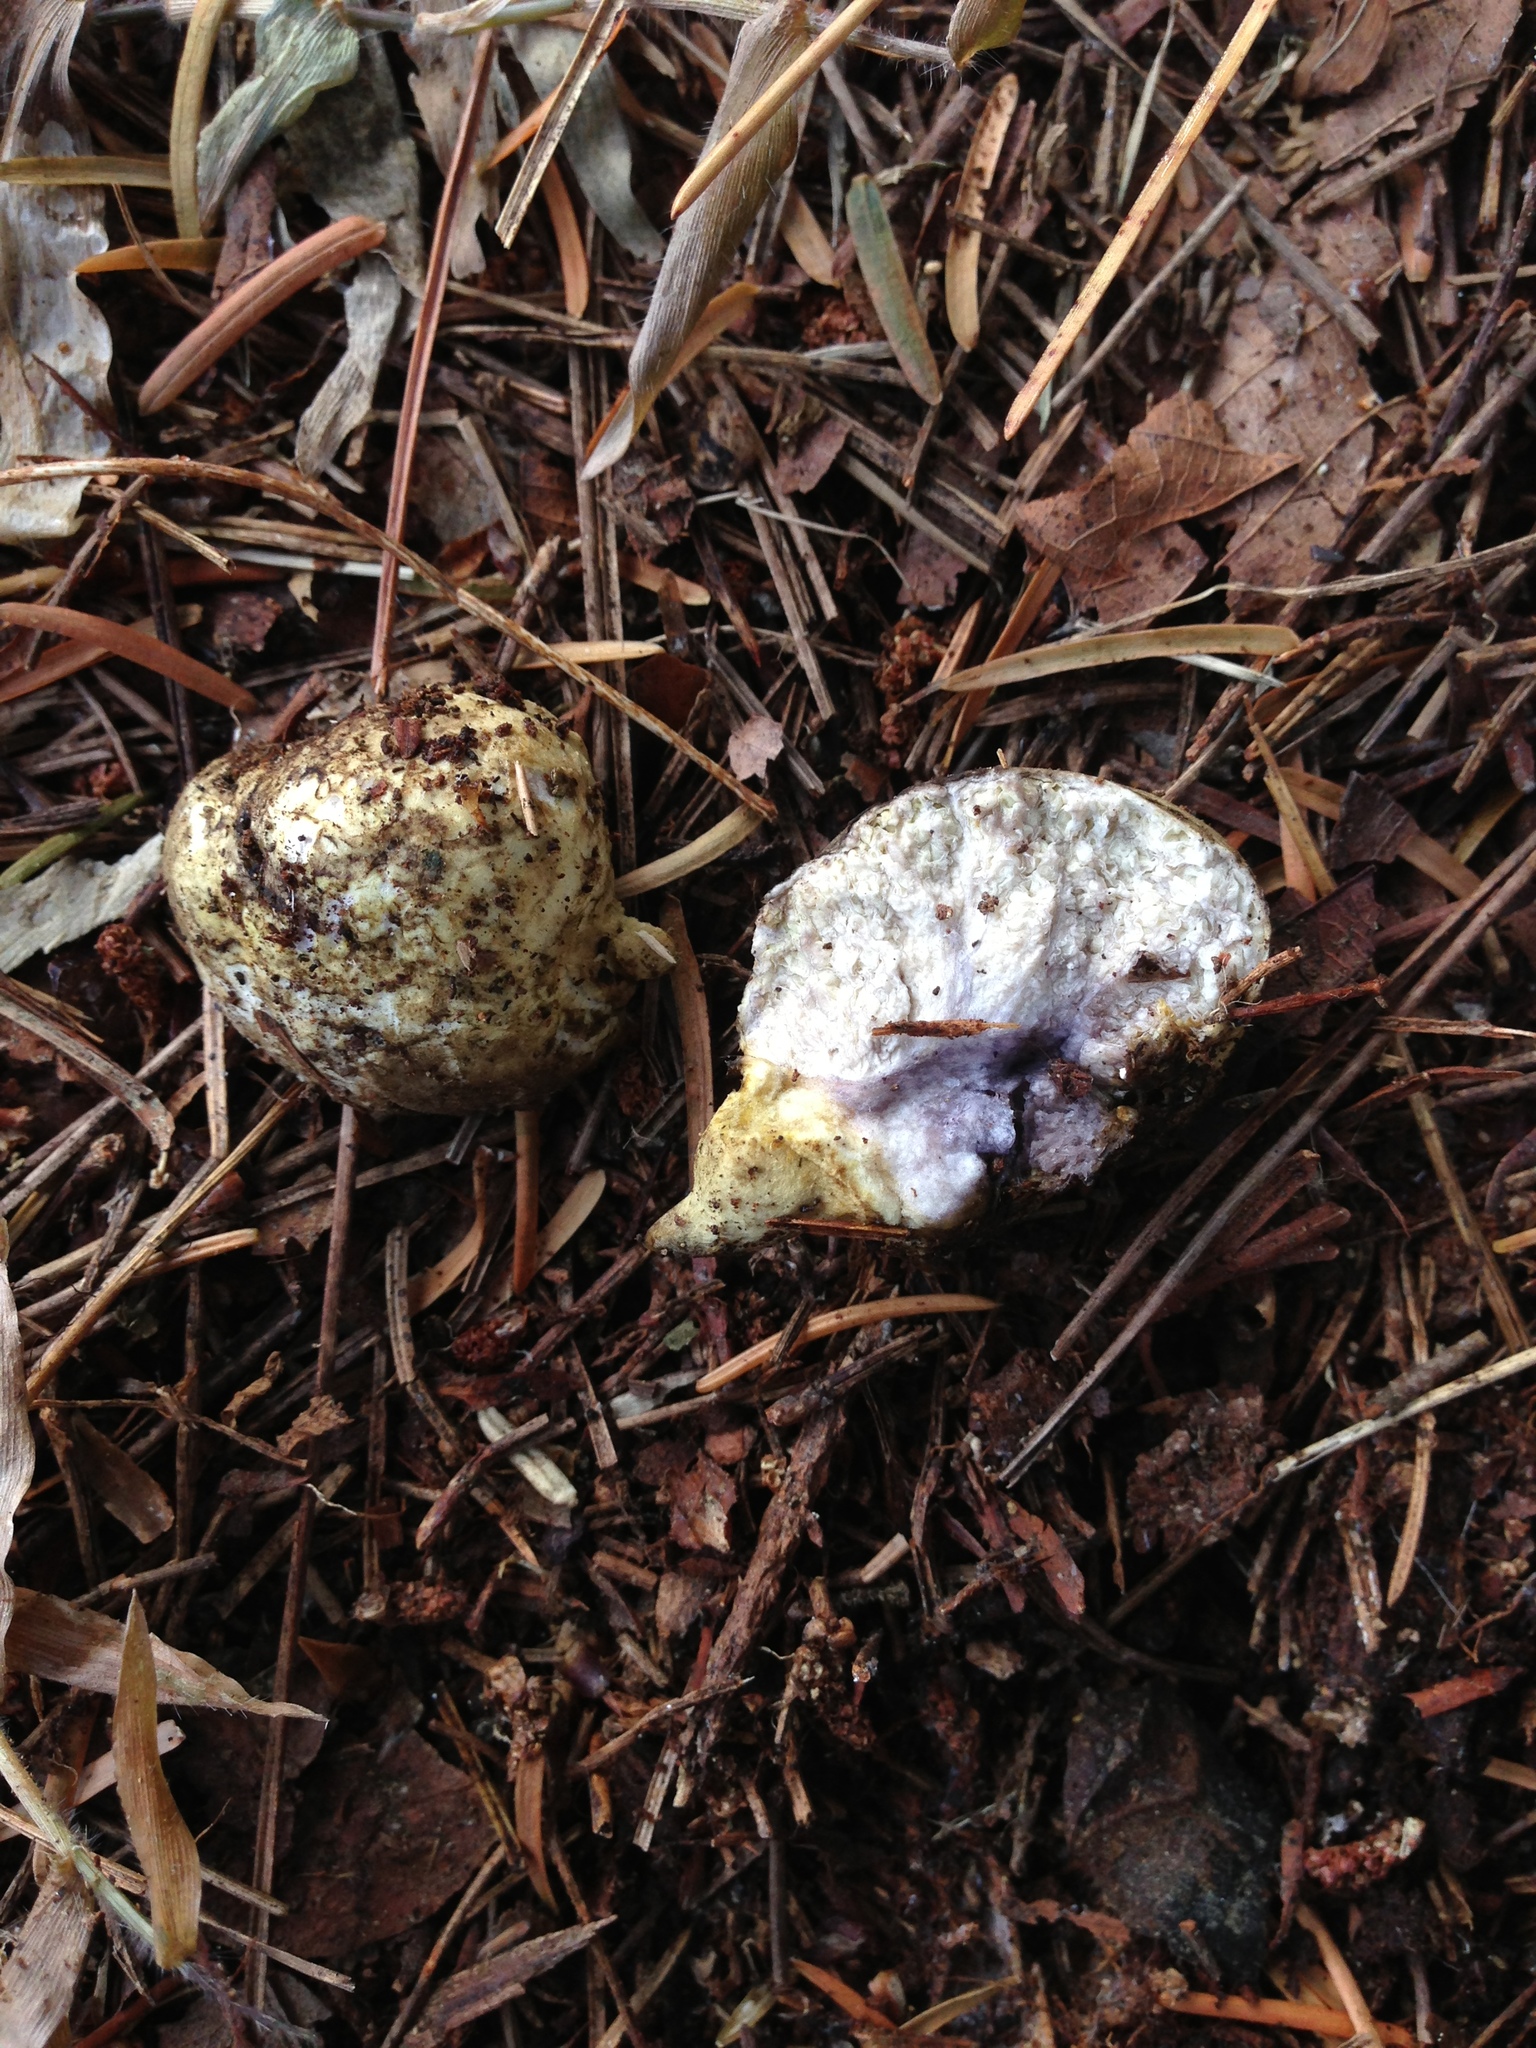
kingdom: Fungi
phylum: Basidiomycota
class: Agaricomycetes
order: Boletales
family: Boletaceae
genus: Heliogaster
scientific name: Heliogaster columellifer
